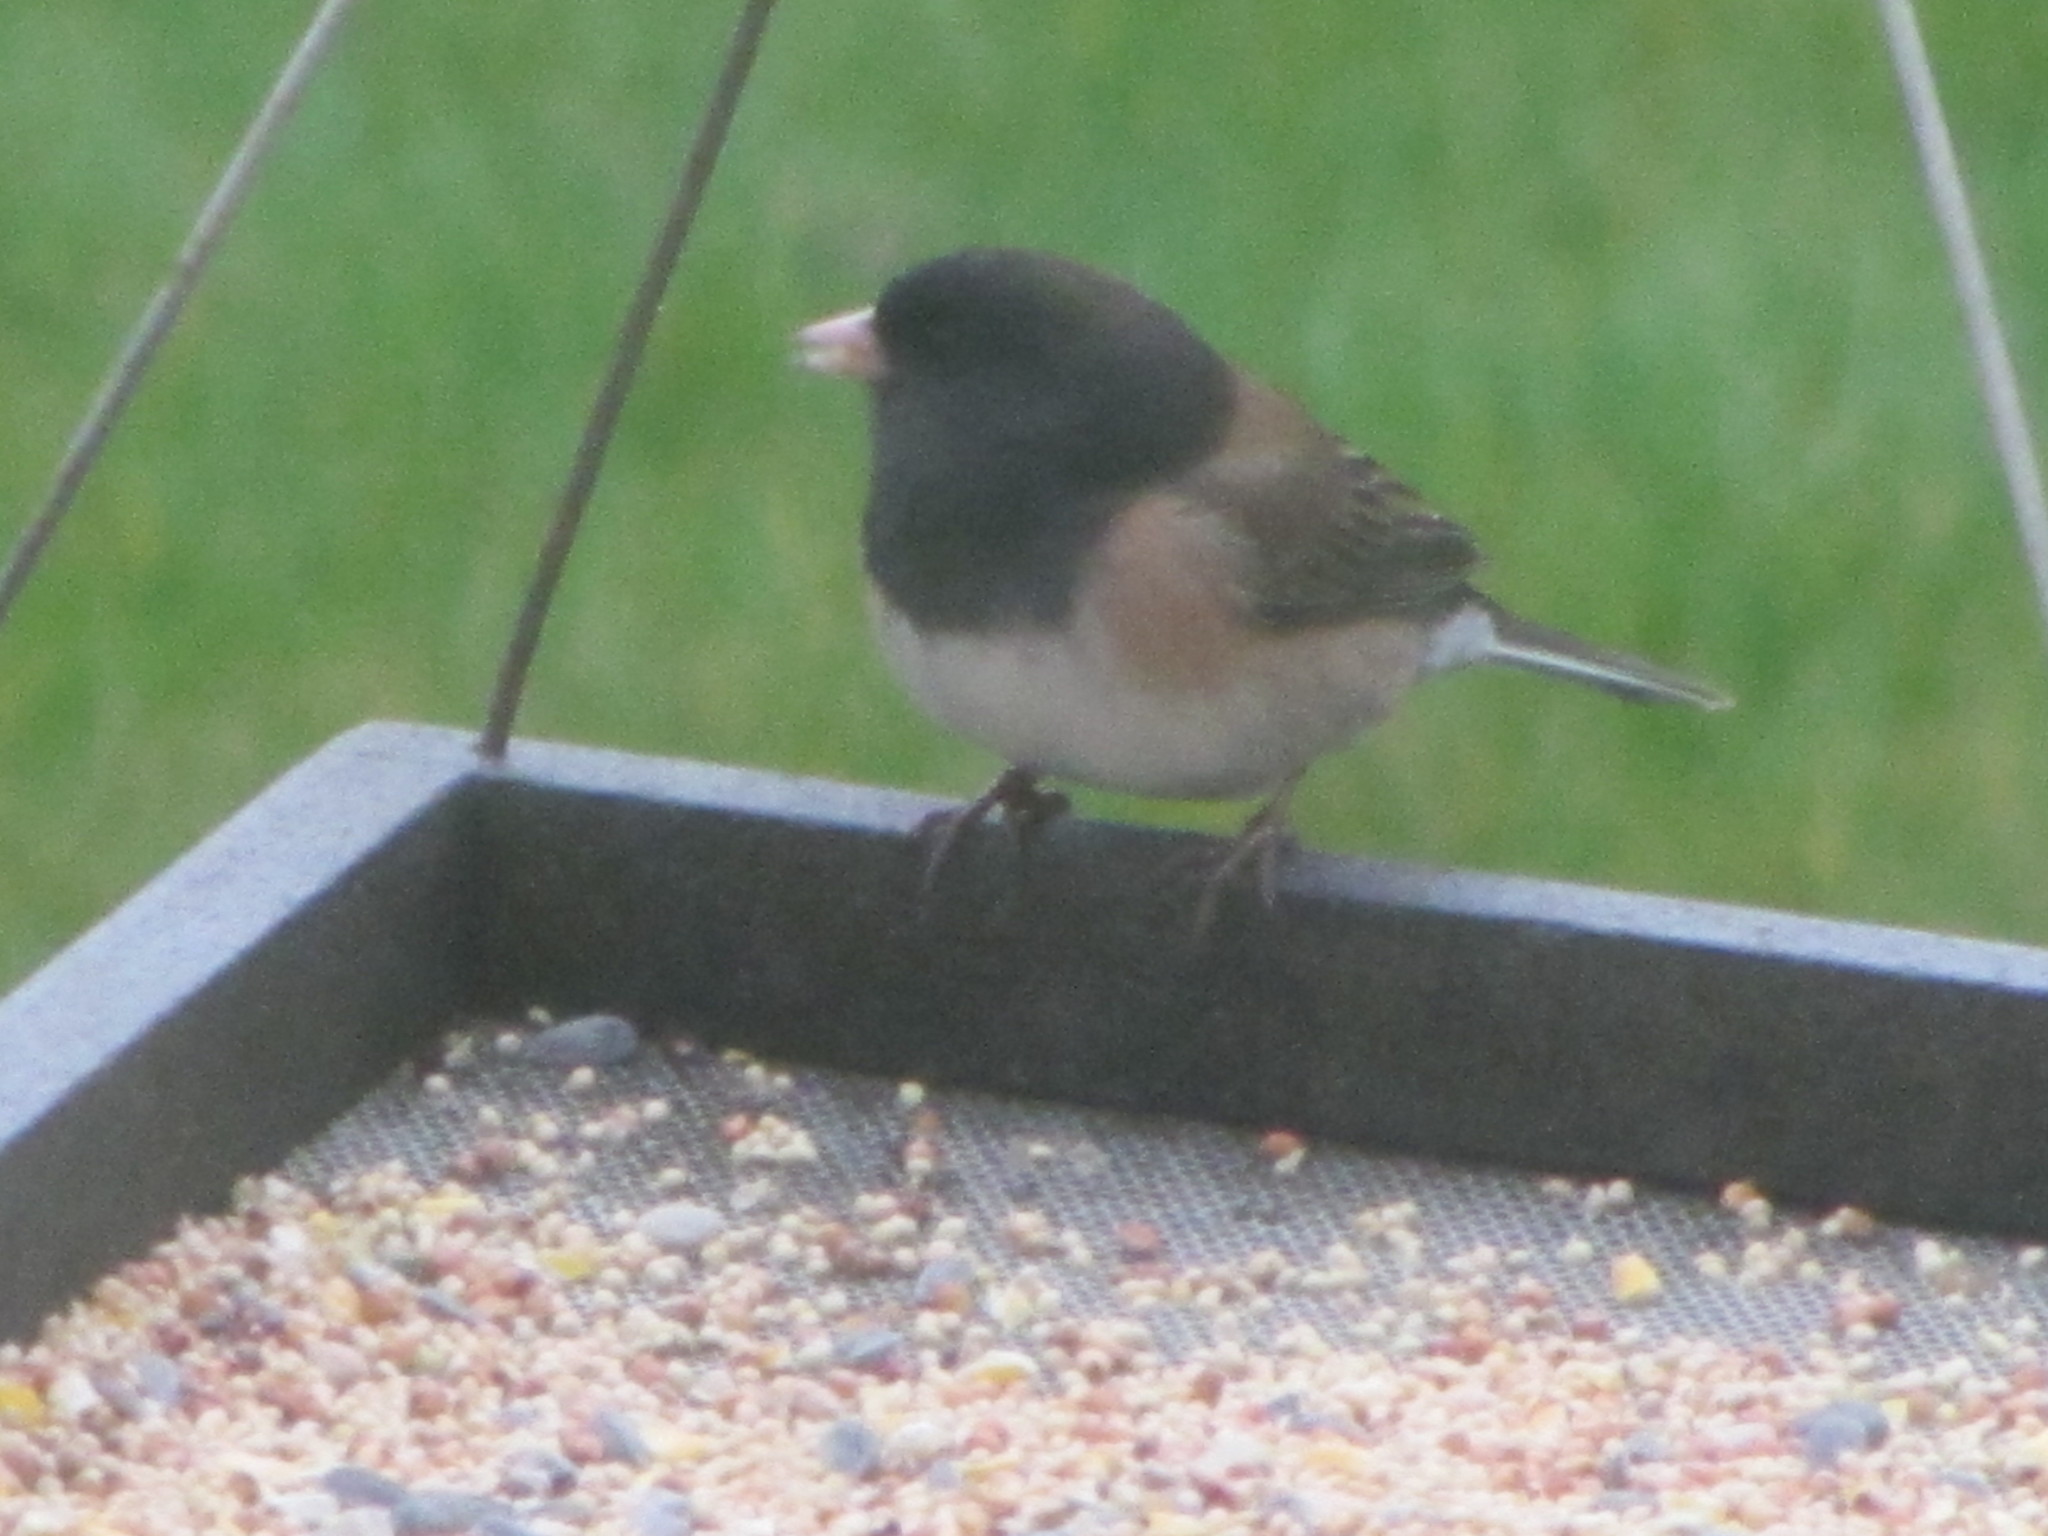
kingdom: Animalia
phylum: Chordata
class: Aves
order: Passeriformes
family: Passerellidae
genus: Junco
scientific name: Junco hyemalis
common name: Dark-eyed junco
